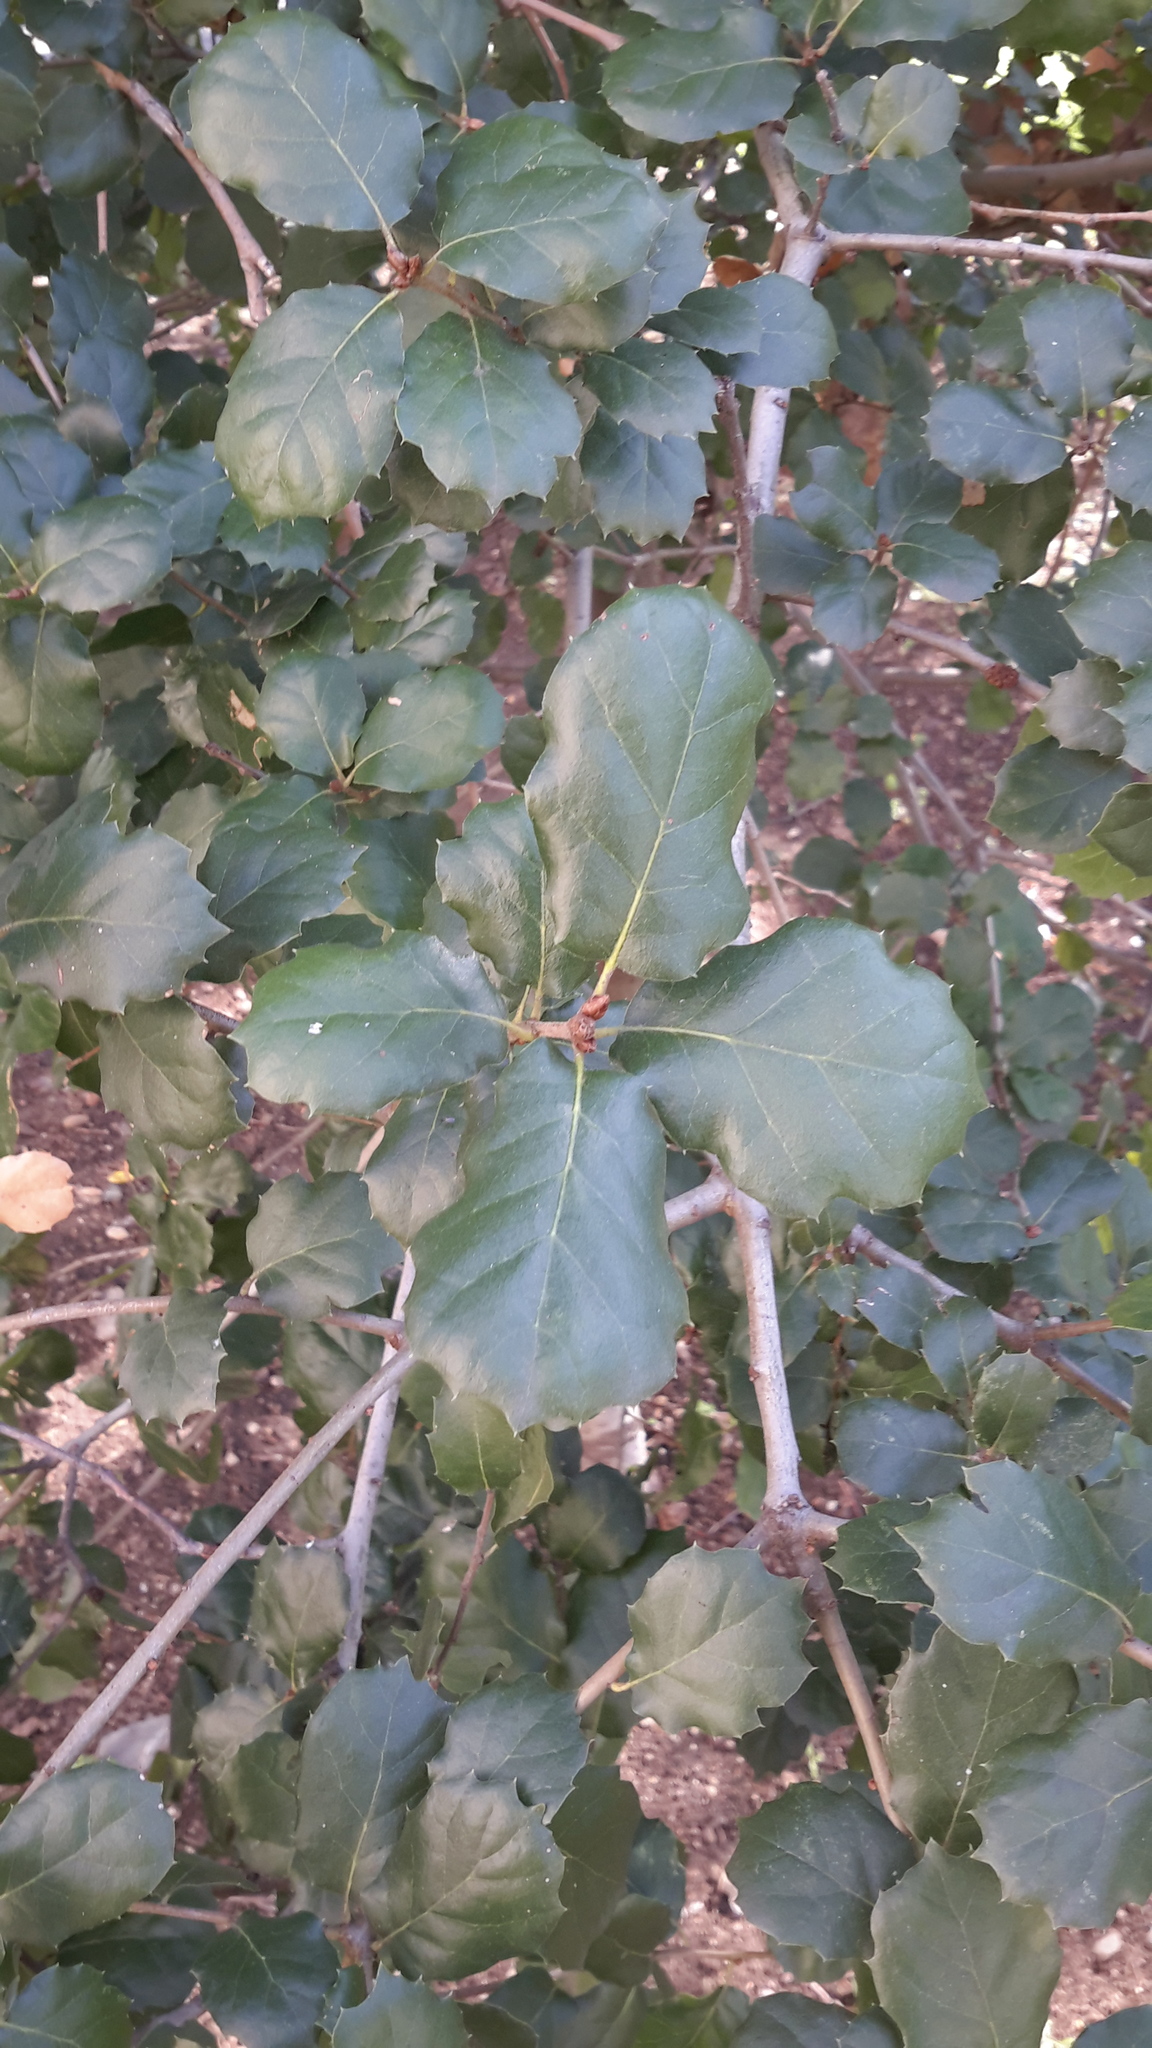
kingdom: Plantae
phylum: Tracheophyta
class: Magnoliopsida
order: Fagales
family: Fagaceae
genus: Quercus
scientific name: Quercus agrifolia
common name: California live oak
